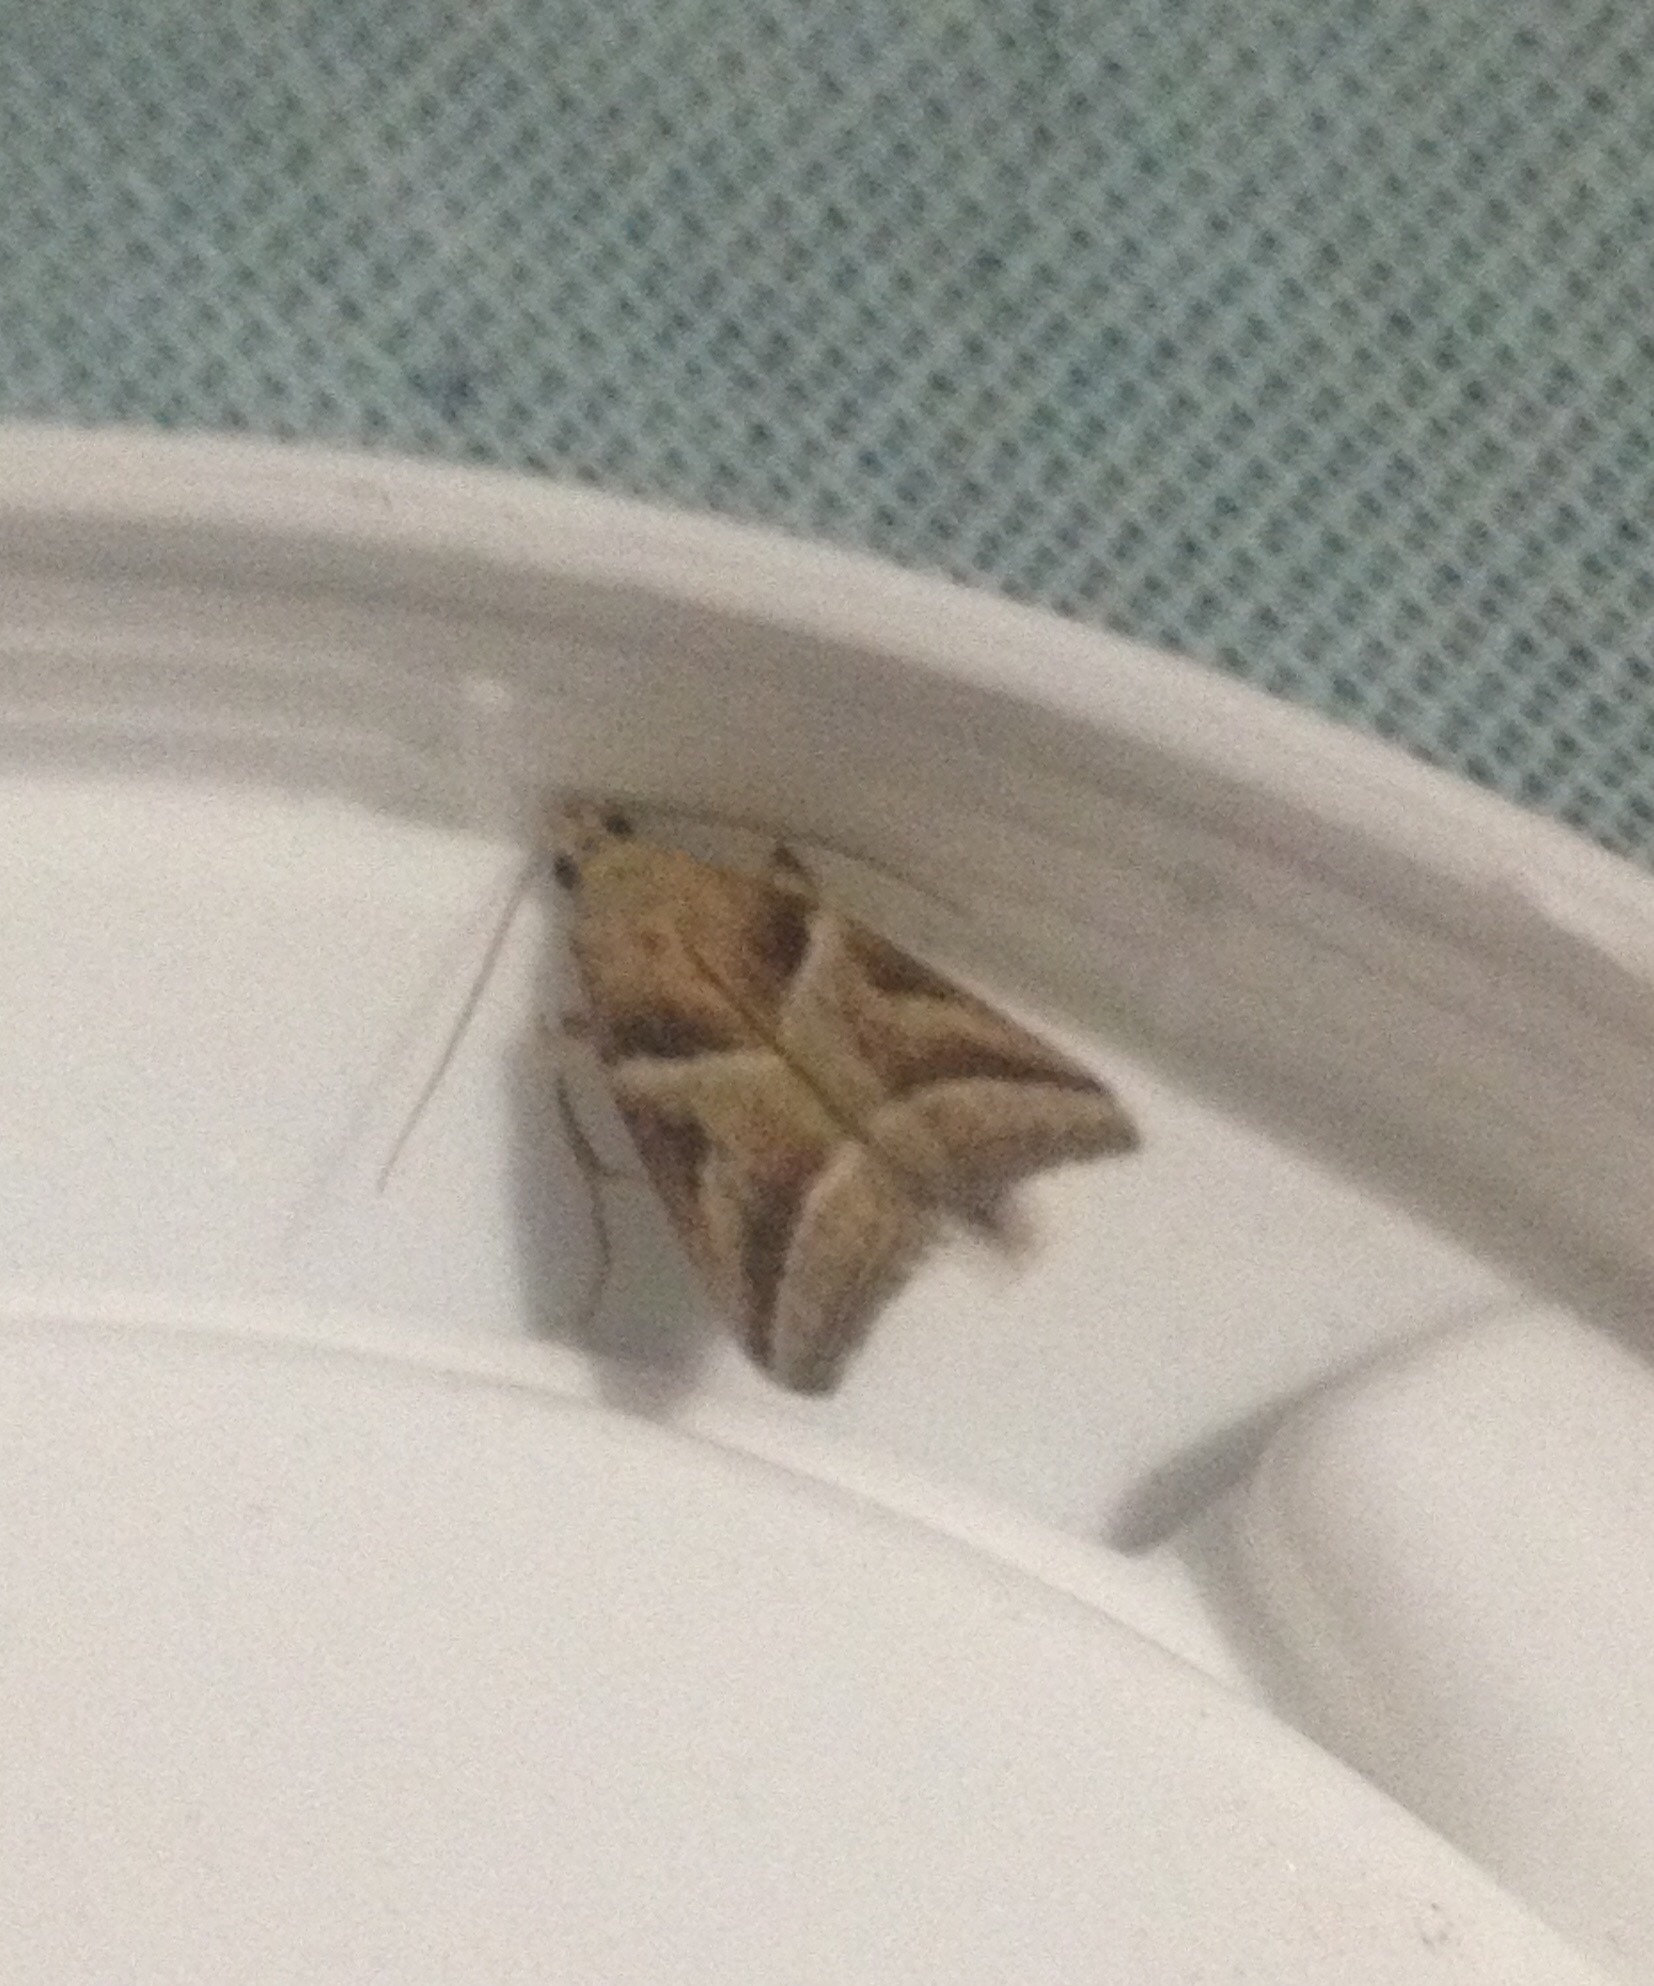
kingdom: Animalia
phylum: Arthropoda
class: Insecta
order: Lepidoptera
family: Pyralidae
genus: Nyctegretis
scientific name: Nyctegretis lineana
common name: Agate knot-horn
